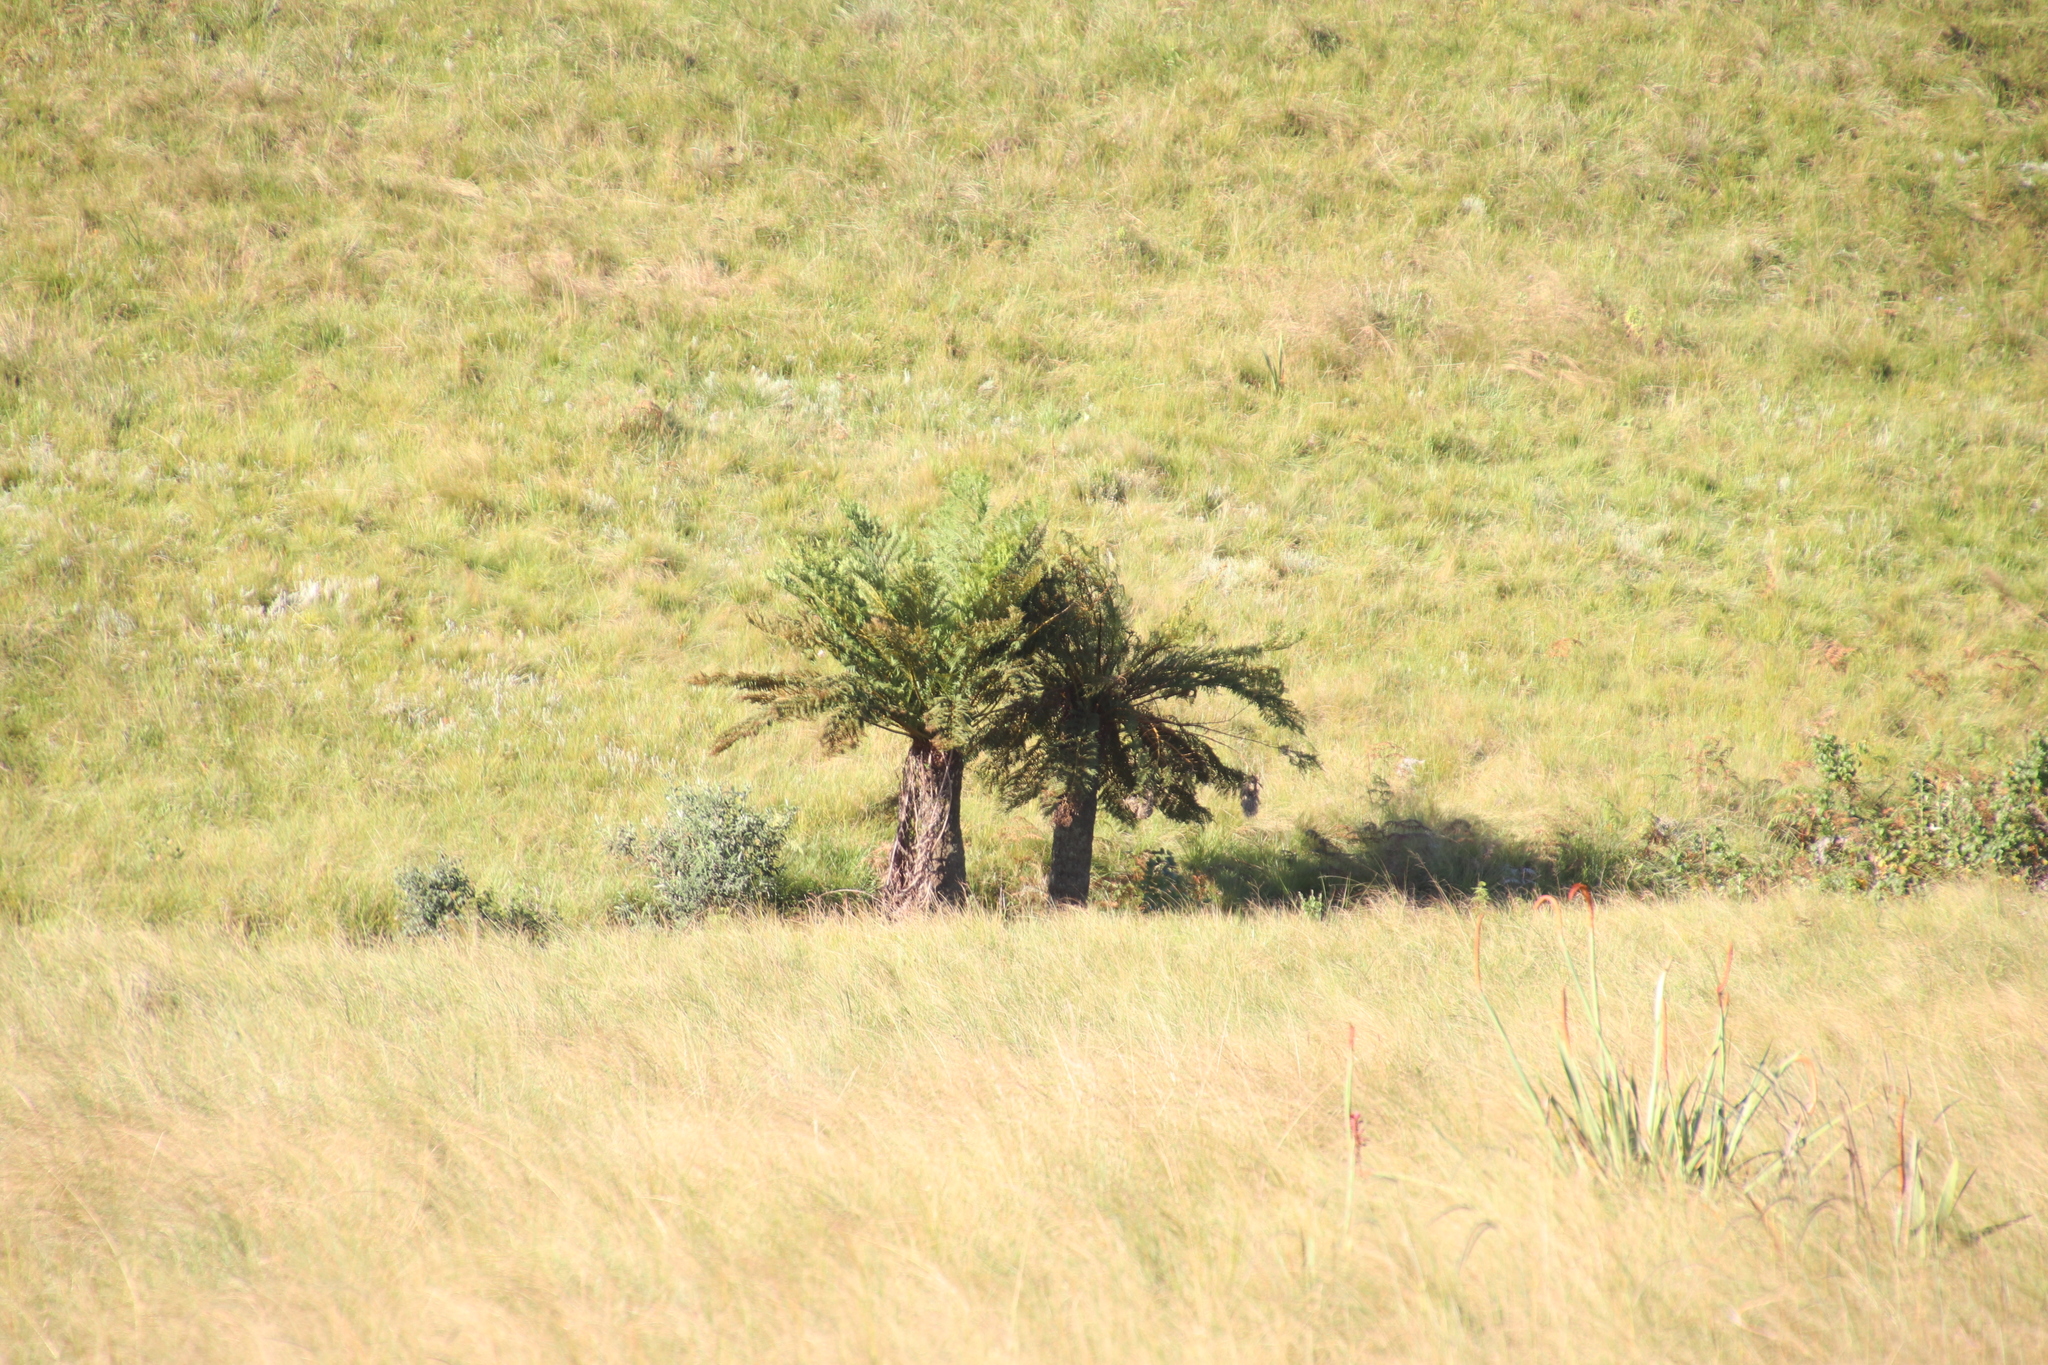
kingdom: Plantae
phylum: Tracheophyta
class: Polypodiopsida
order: Cyatheales
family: Cyatheaceae
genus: Alsophila
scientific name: Alsophila dregei
